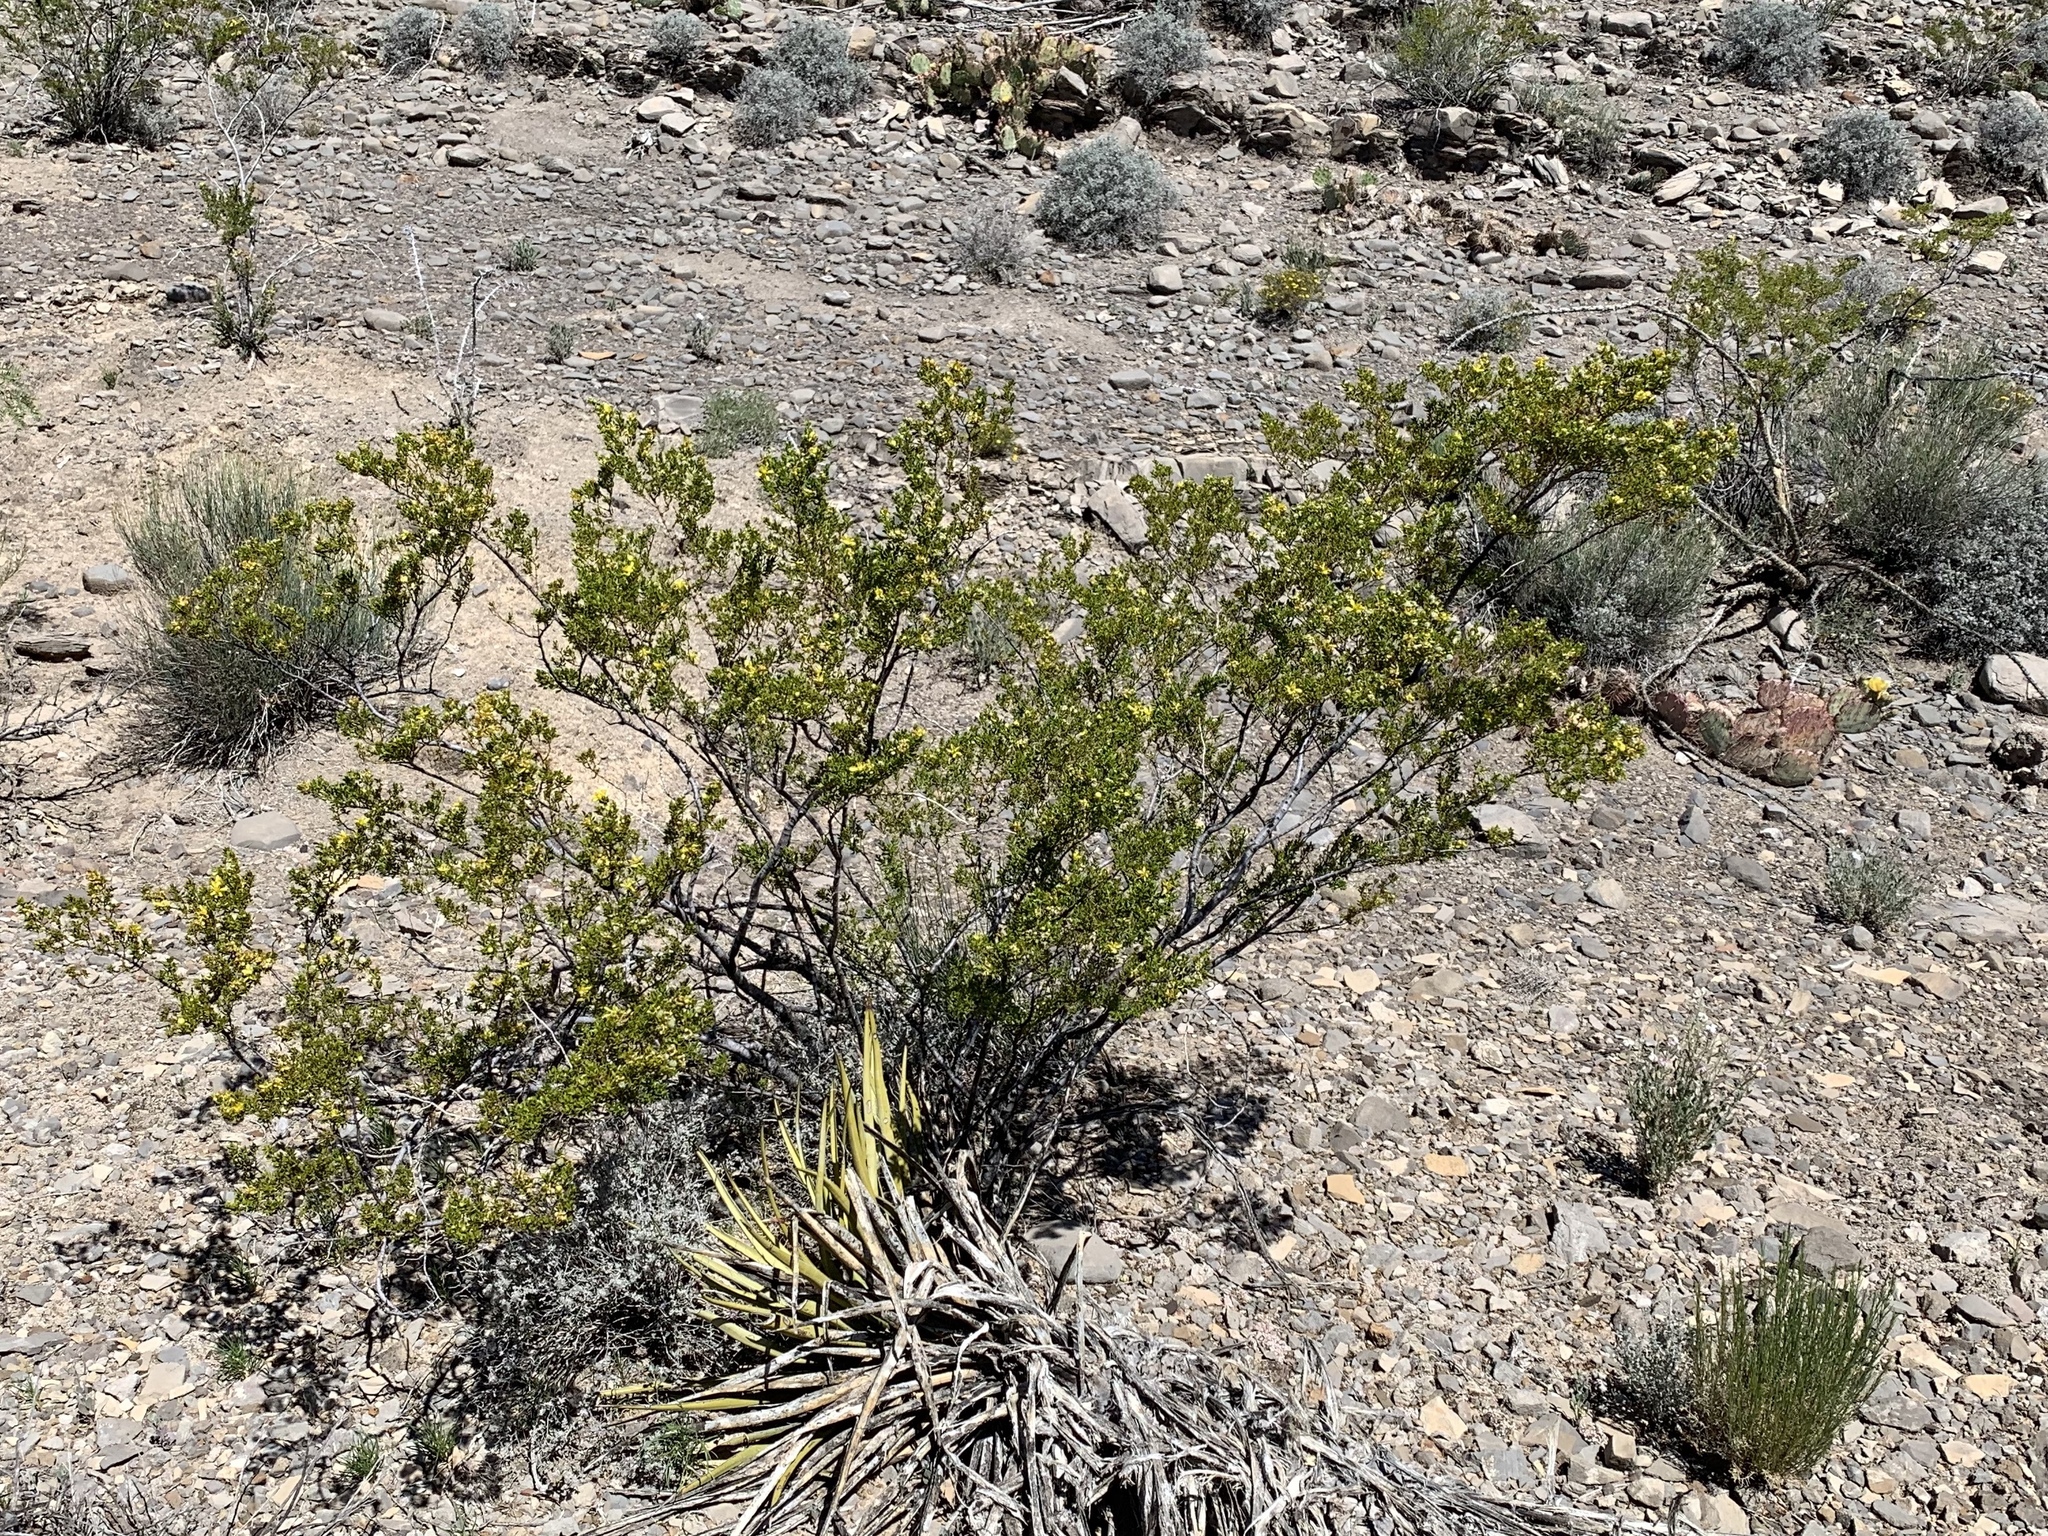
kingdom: Plantae
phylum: Tracheophyta
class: Magnoliopsida
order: Zygophyllales
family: Zygophyllaceae
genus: Larrea
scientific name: Larrea tridentata
